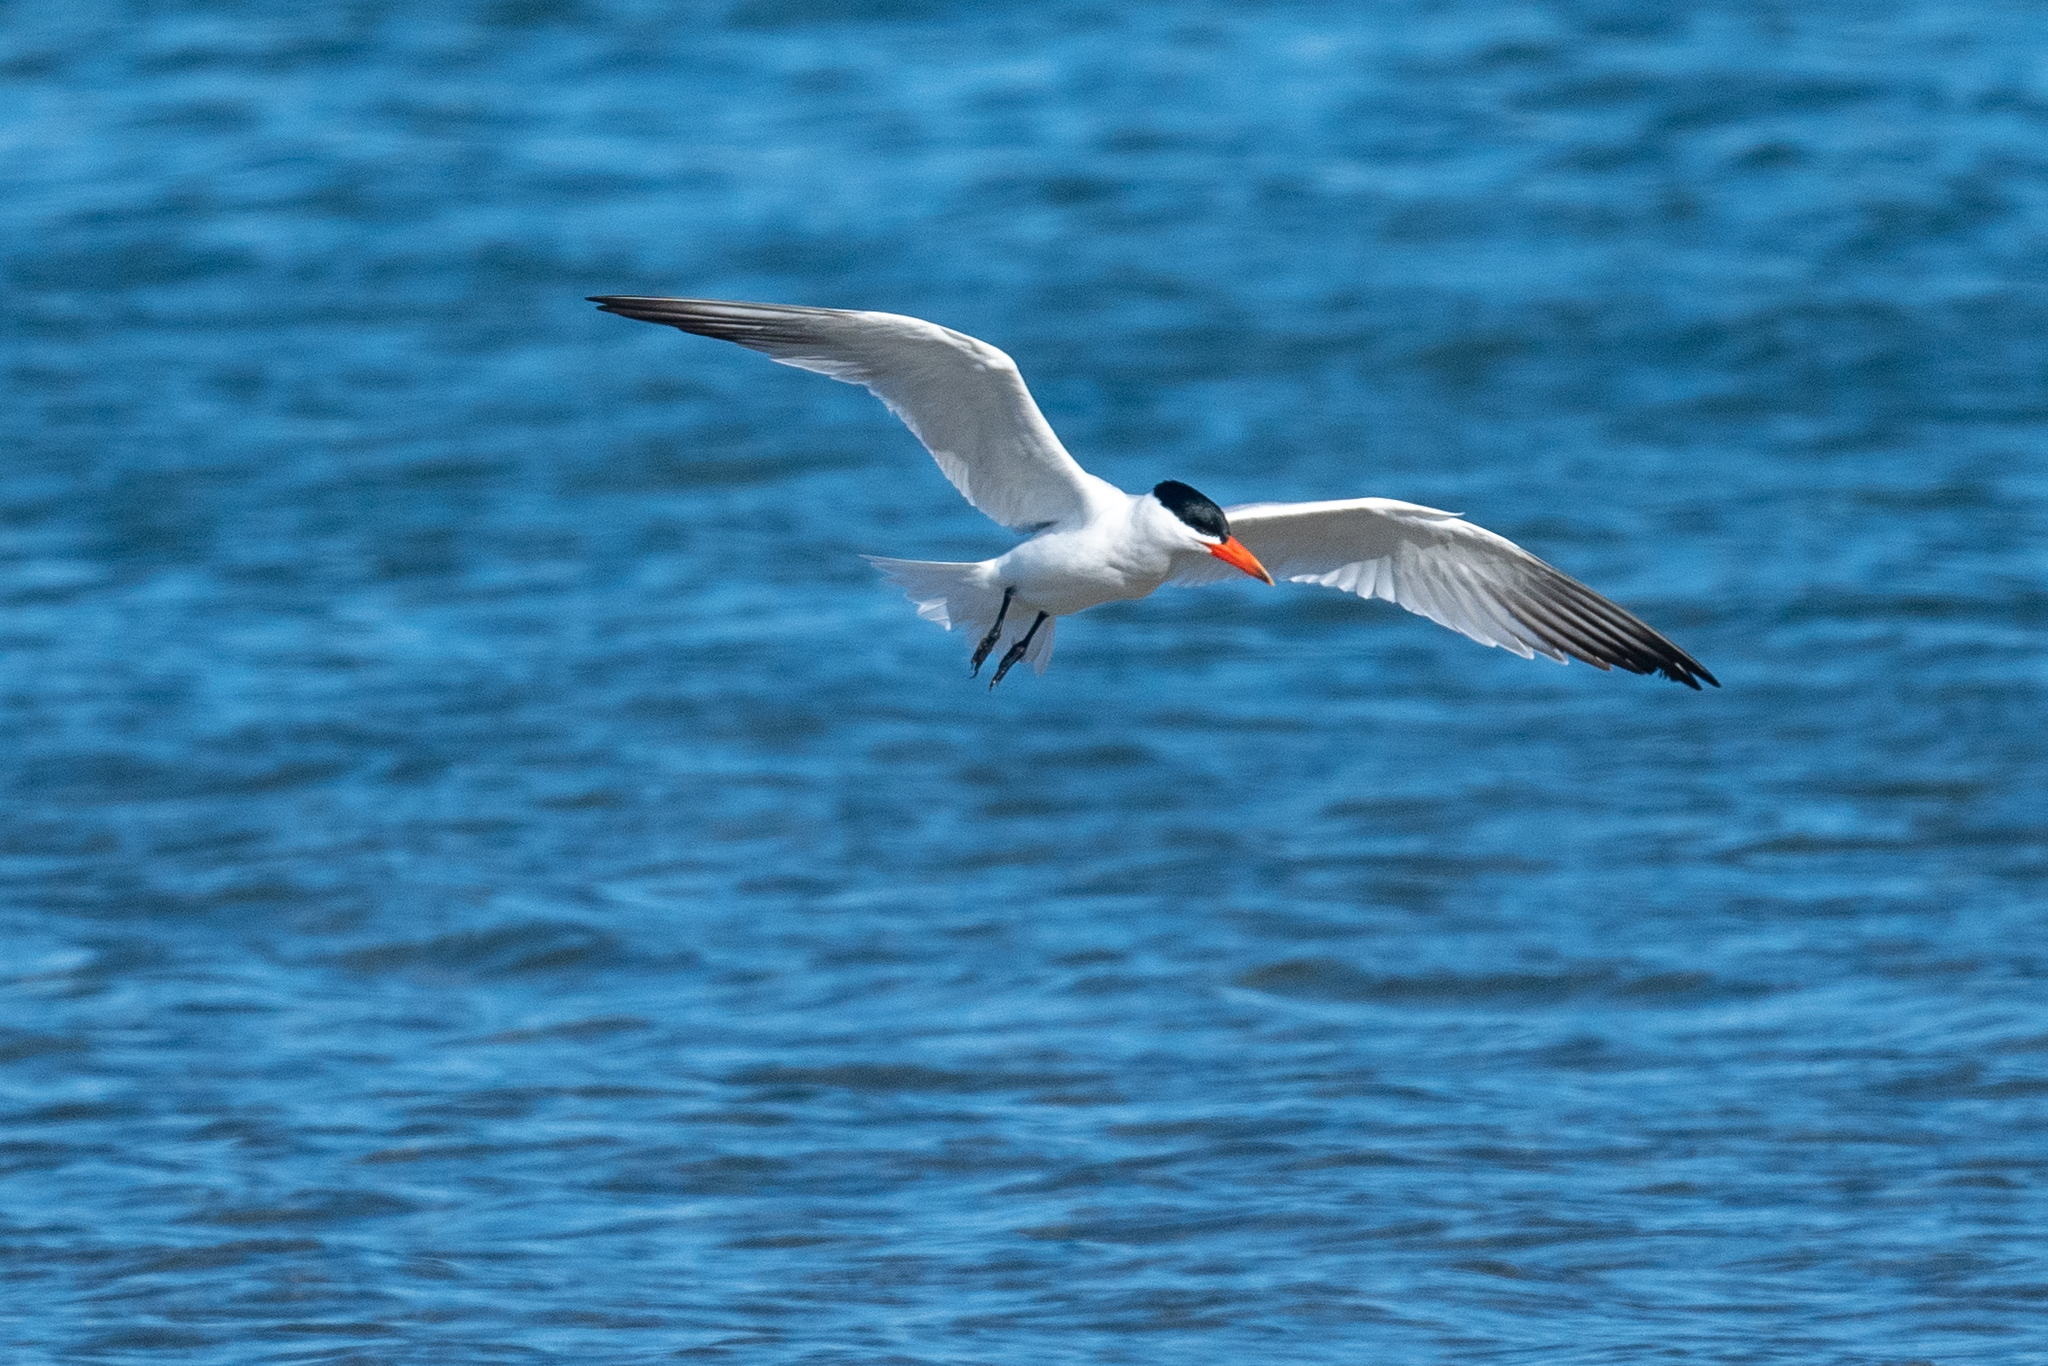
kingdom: Animalia
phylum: Chordata
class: Aves
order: Charadriiformes
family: Laridae
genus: Hydroprogne
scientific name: Hydroprogne caspia
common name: Caspian tern
